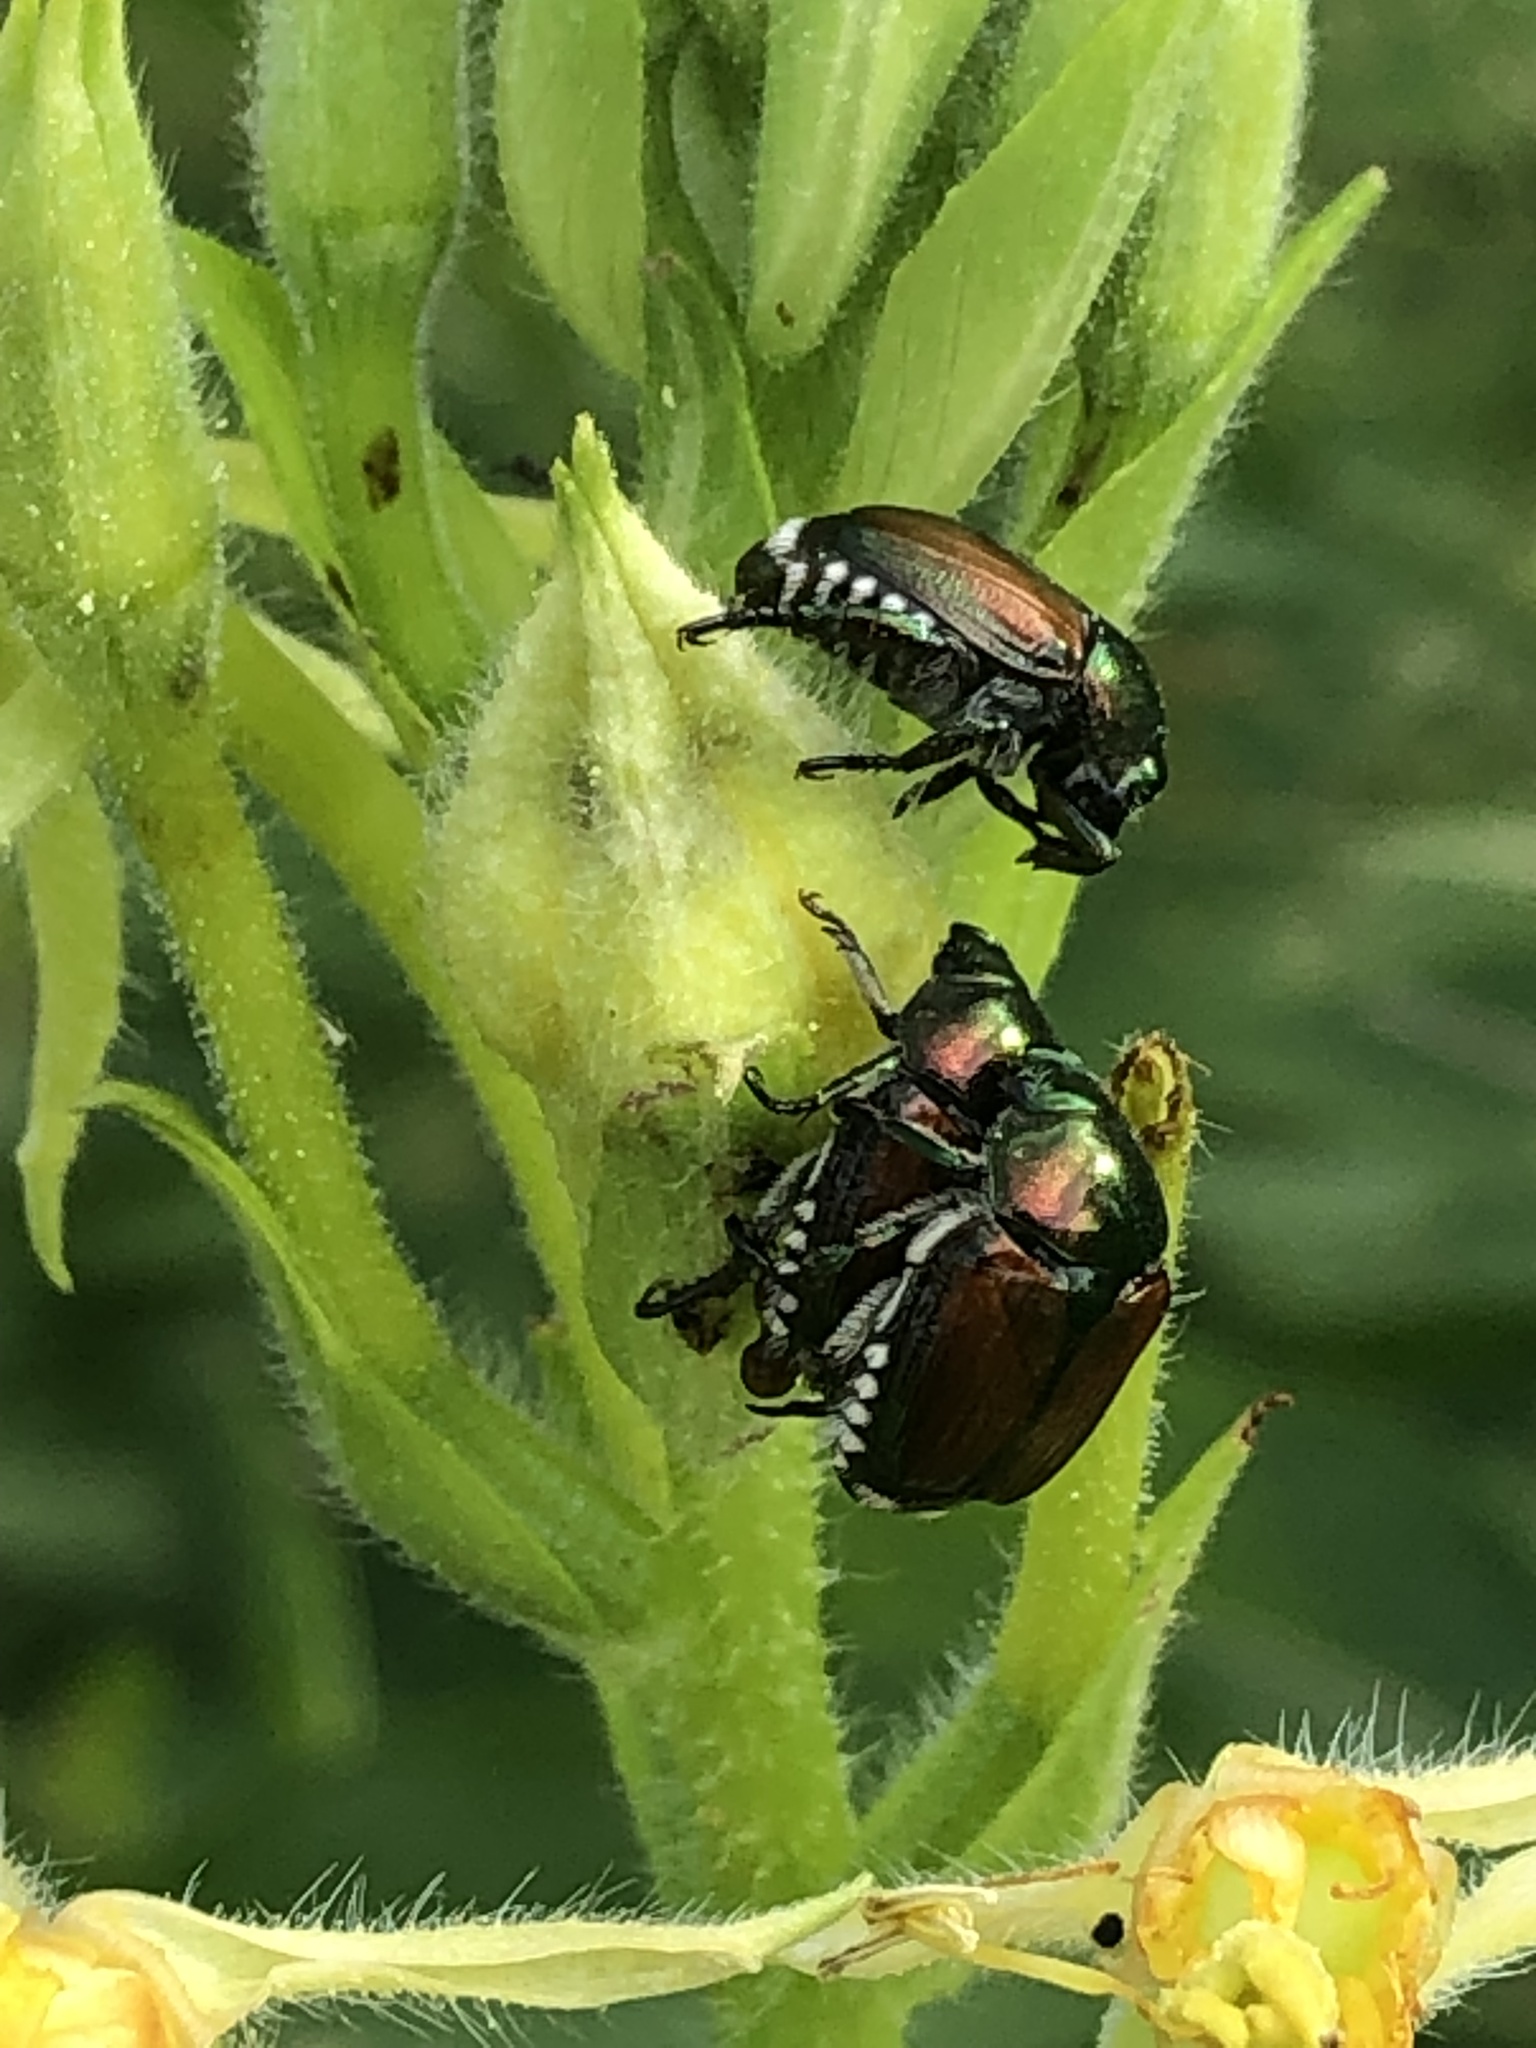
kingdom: Animalia
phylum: Arthropoda
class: Insecta
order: Coleoptera
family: Scarabaeidae
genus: Popillia
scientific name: Popillia japonica
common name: Japanese beetle
